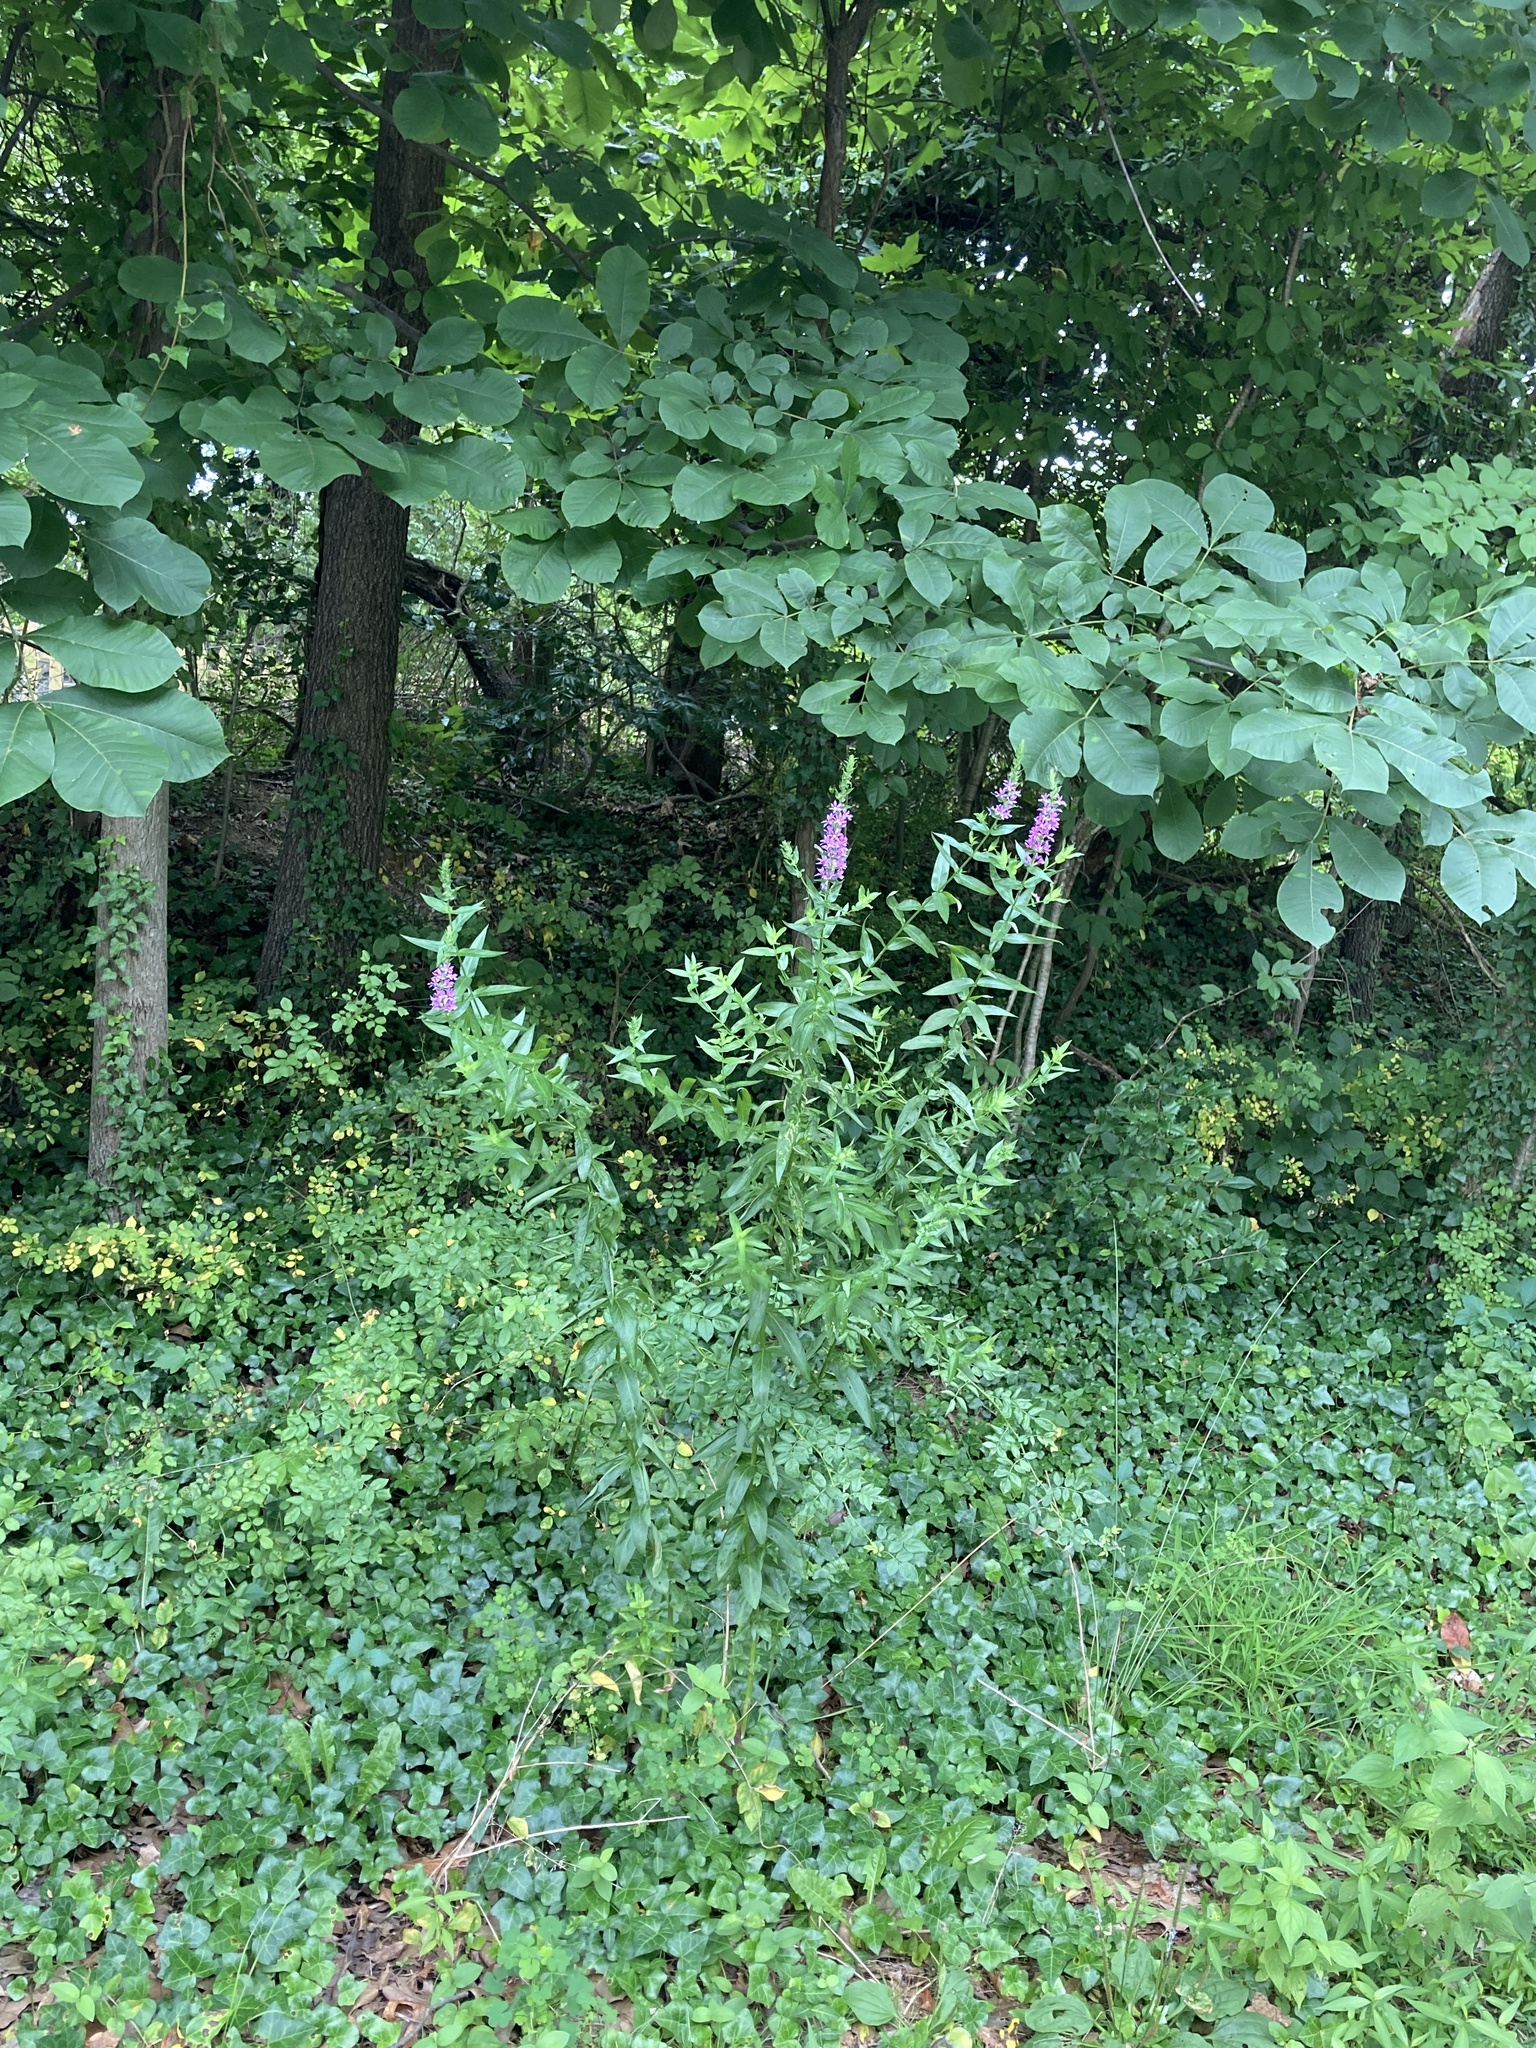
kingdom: Plantae
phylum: Tracheophyta
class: Magnoliopsida
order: Myrtales
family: Lythraceae
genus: Lythrum
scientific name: Lythrum salicaria
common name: Purple loosestrife
